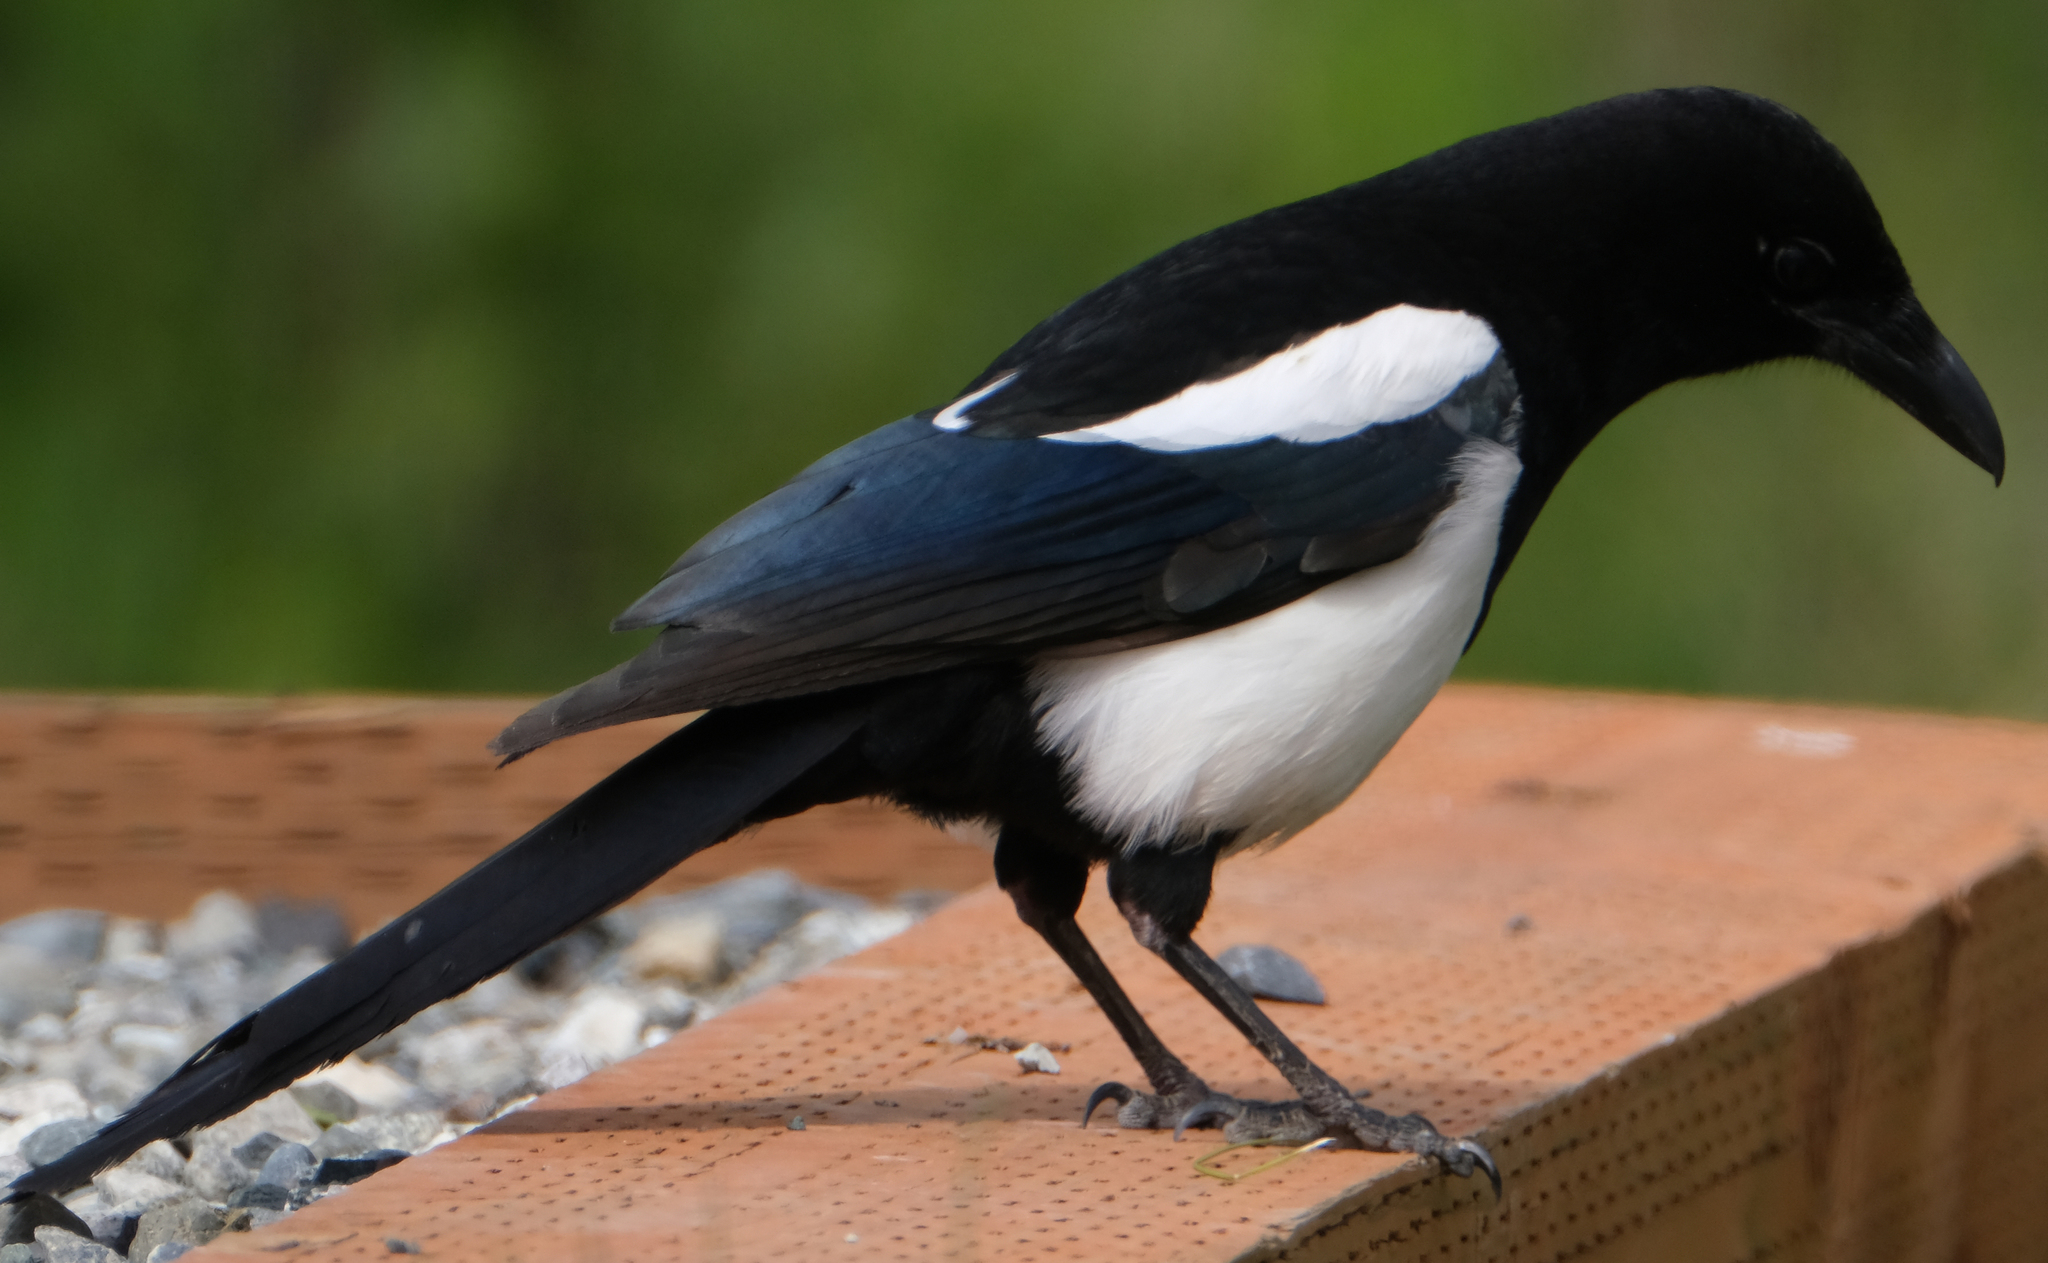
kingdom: Animalia
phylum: Chordata
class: Aves
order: Passeriformes
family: Corvidae
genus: Pica
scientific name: Pica hudsonia
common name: Black-billed magpie
